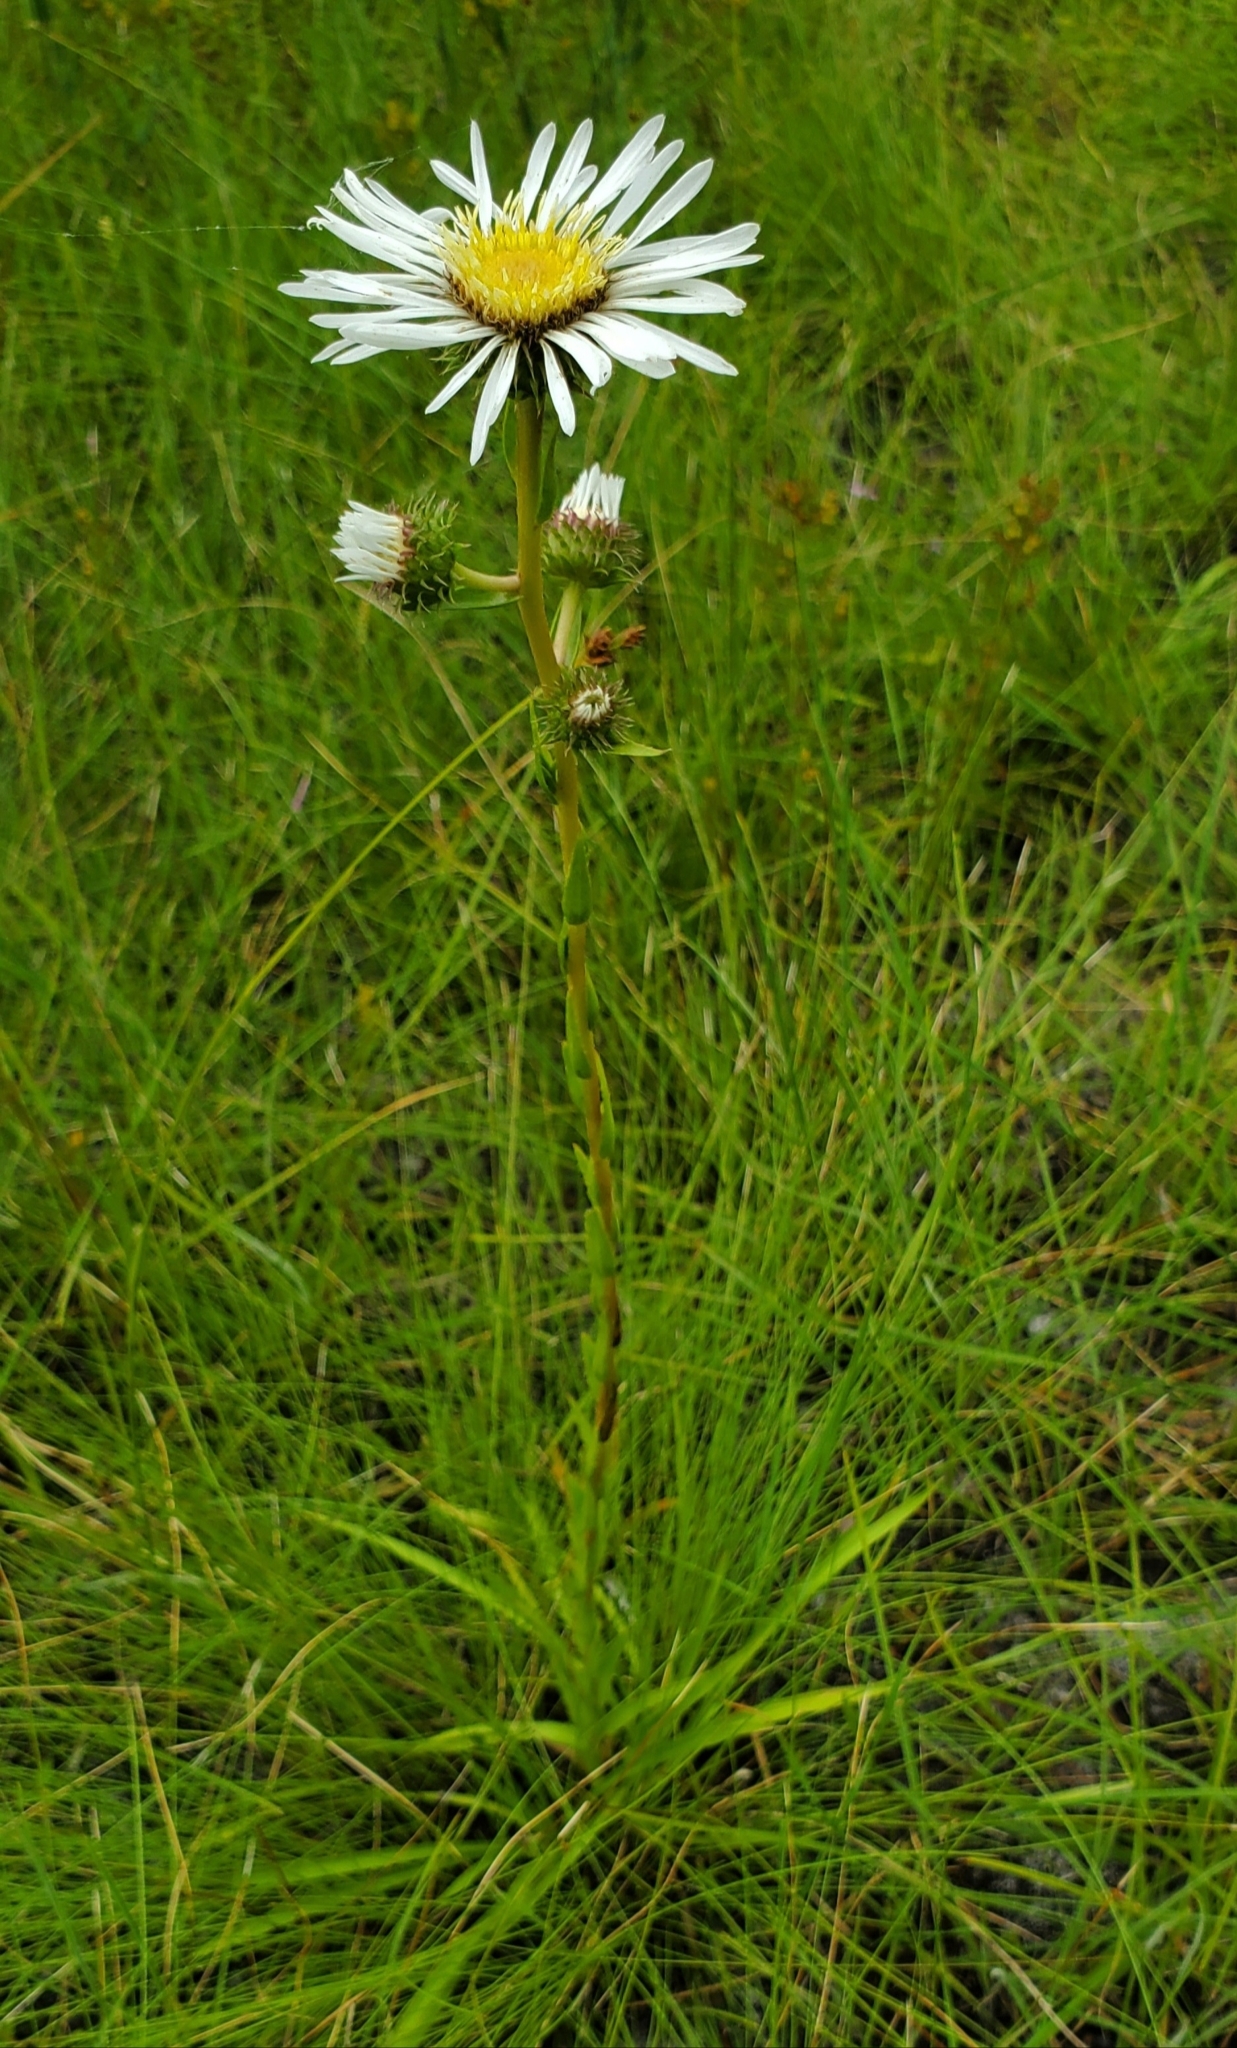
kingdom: Plantae
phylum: Tracheophyta
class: Magnoliopsida
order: Asterales
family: Asteraceae
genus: Eurybia
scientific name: Eurybia eryngiifolia
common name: Thistle-leaf aster
